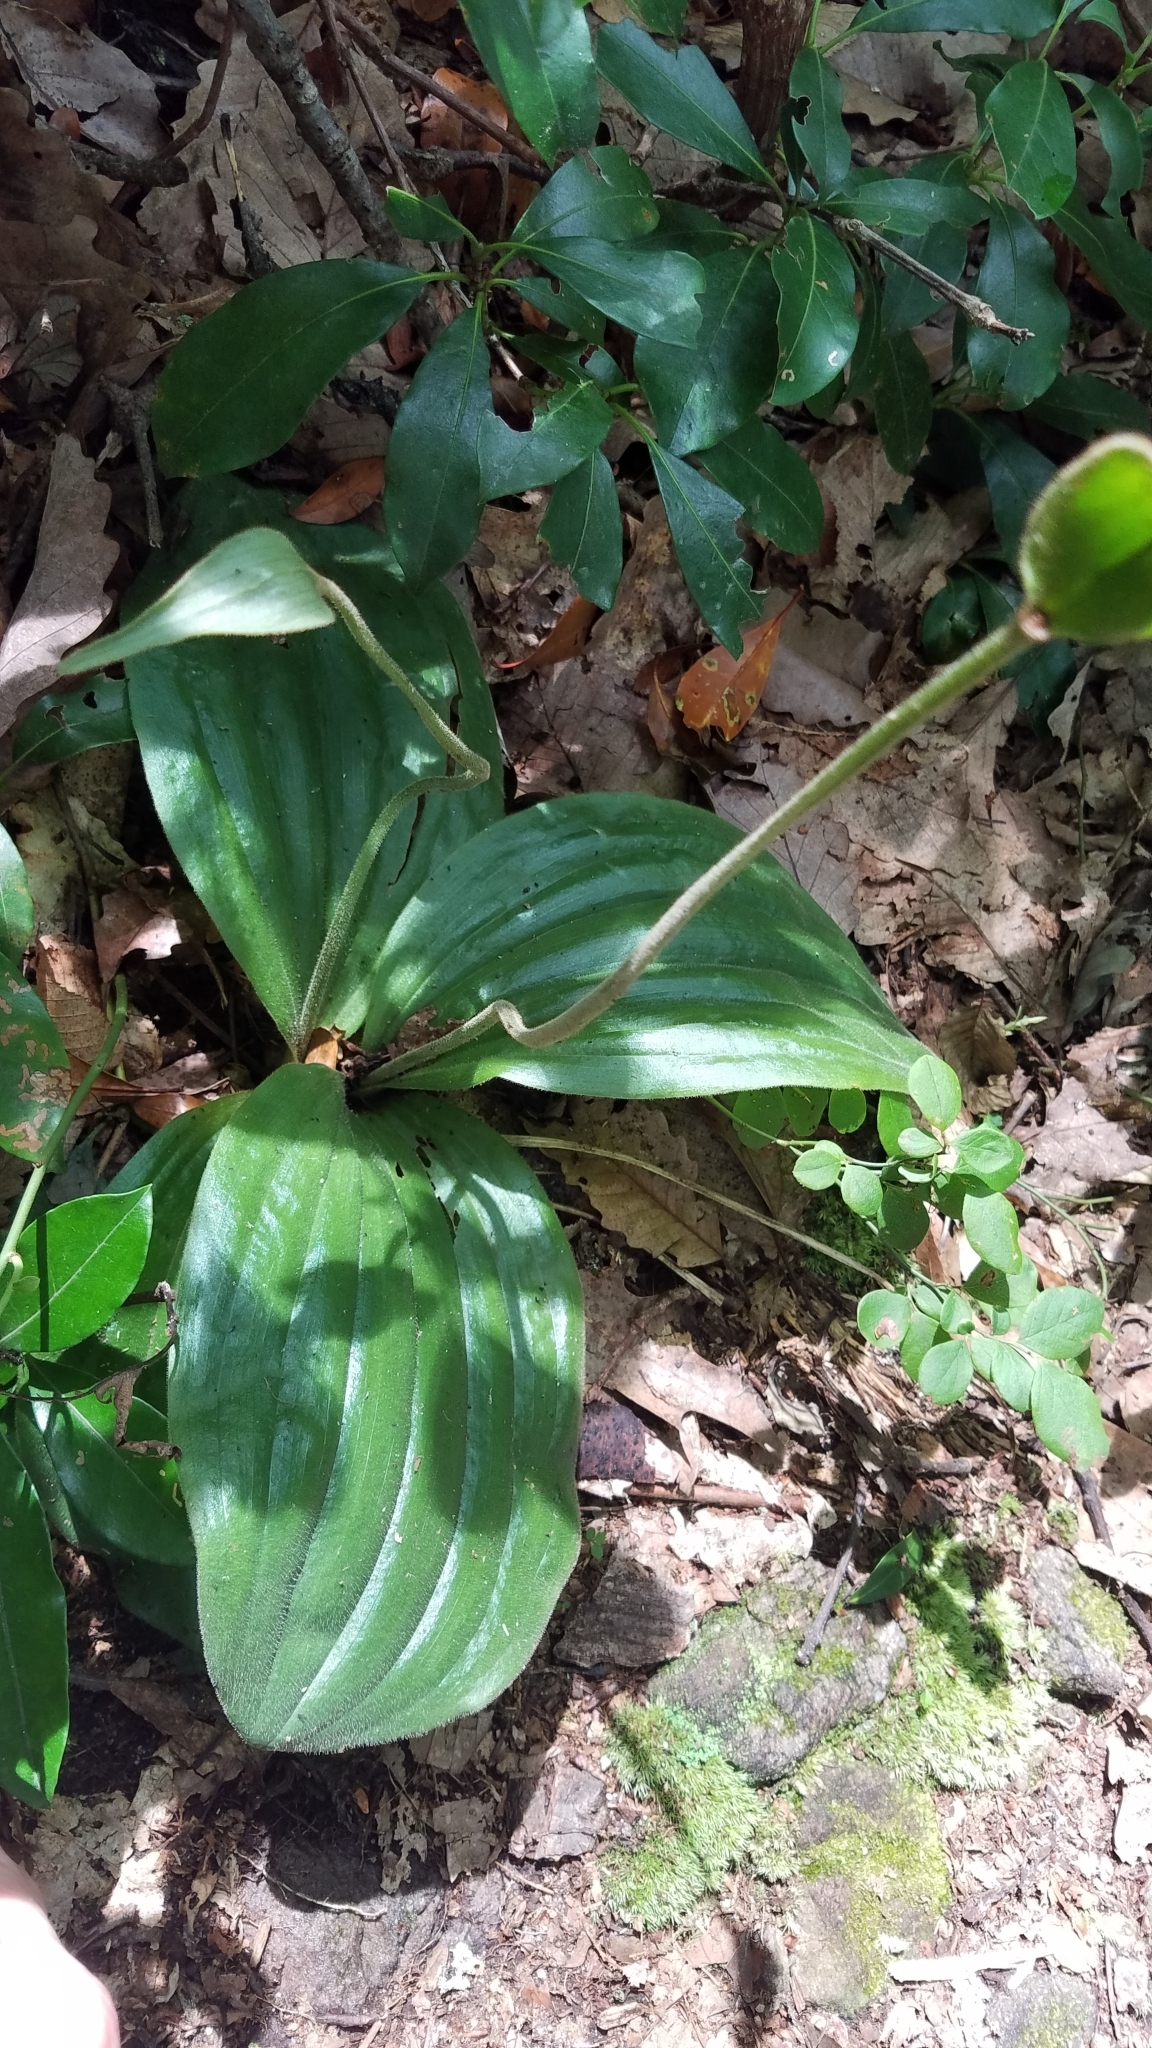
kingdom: Plantae
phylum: Tracheophyta
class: Liliopsida
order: Asparagales
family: Orchidaceae
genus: Cypripedium
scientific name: Cypripedium acaule
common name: Pink lady's-slipper
